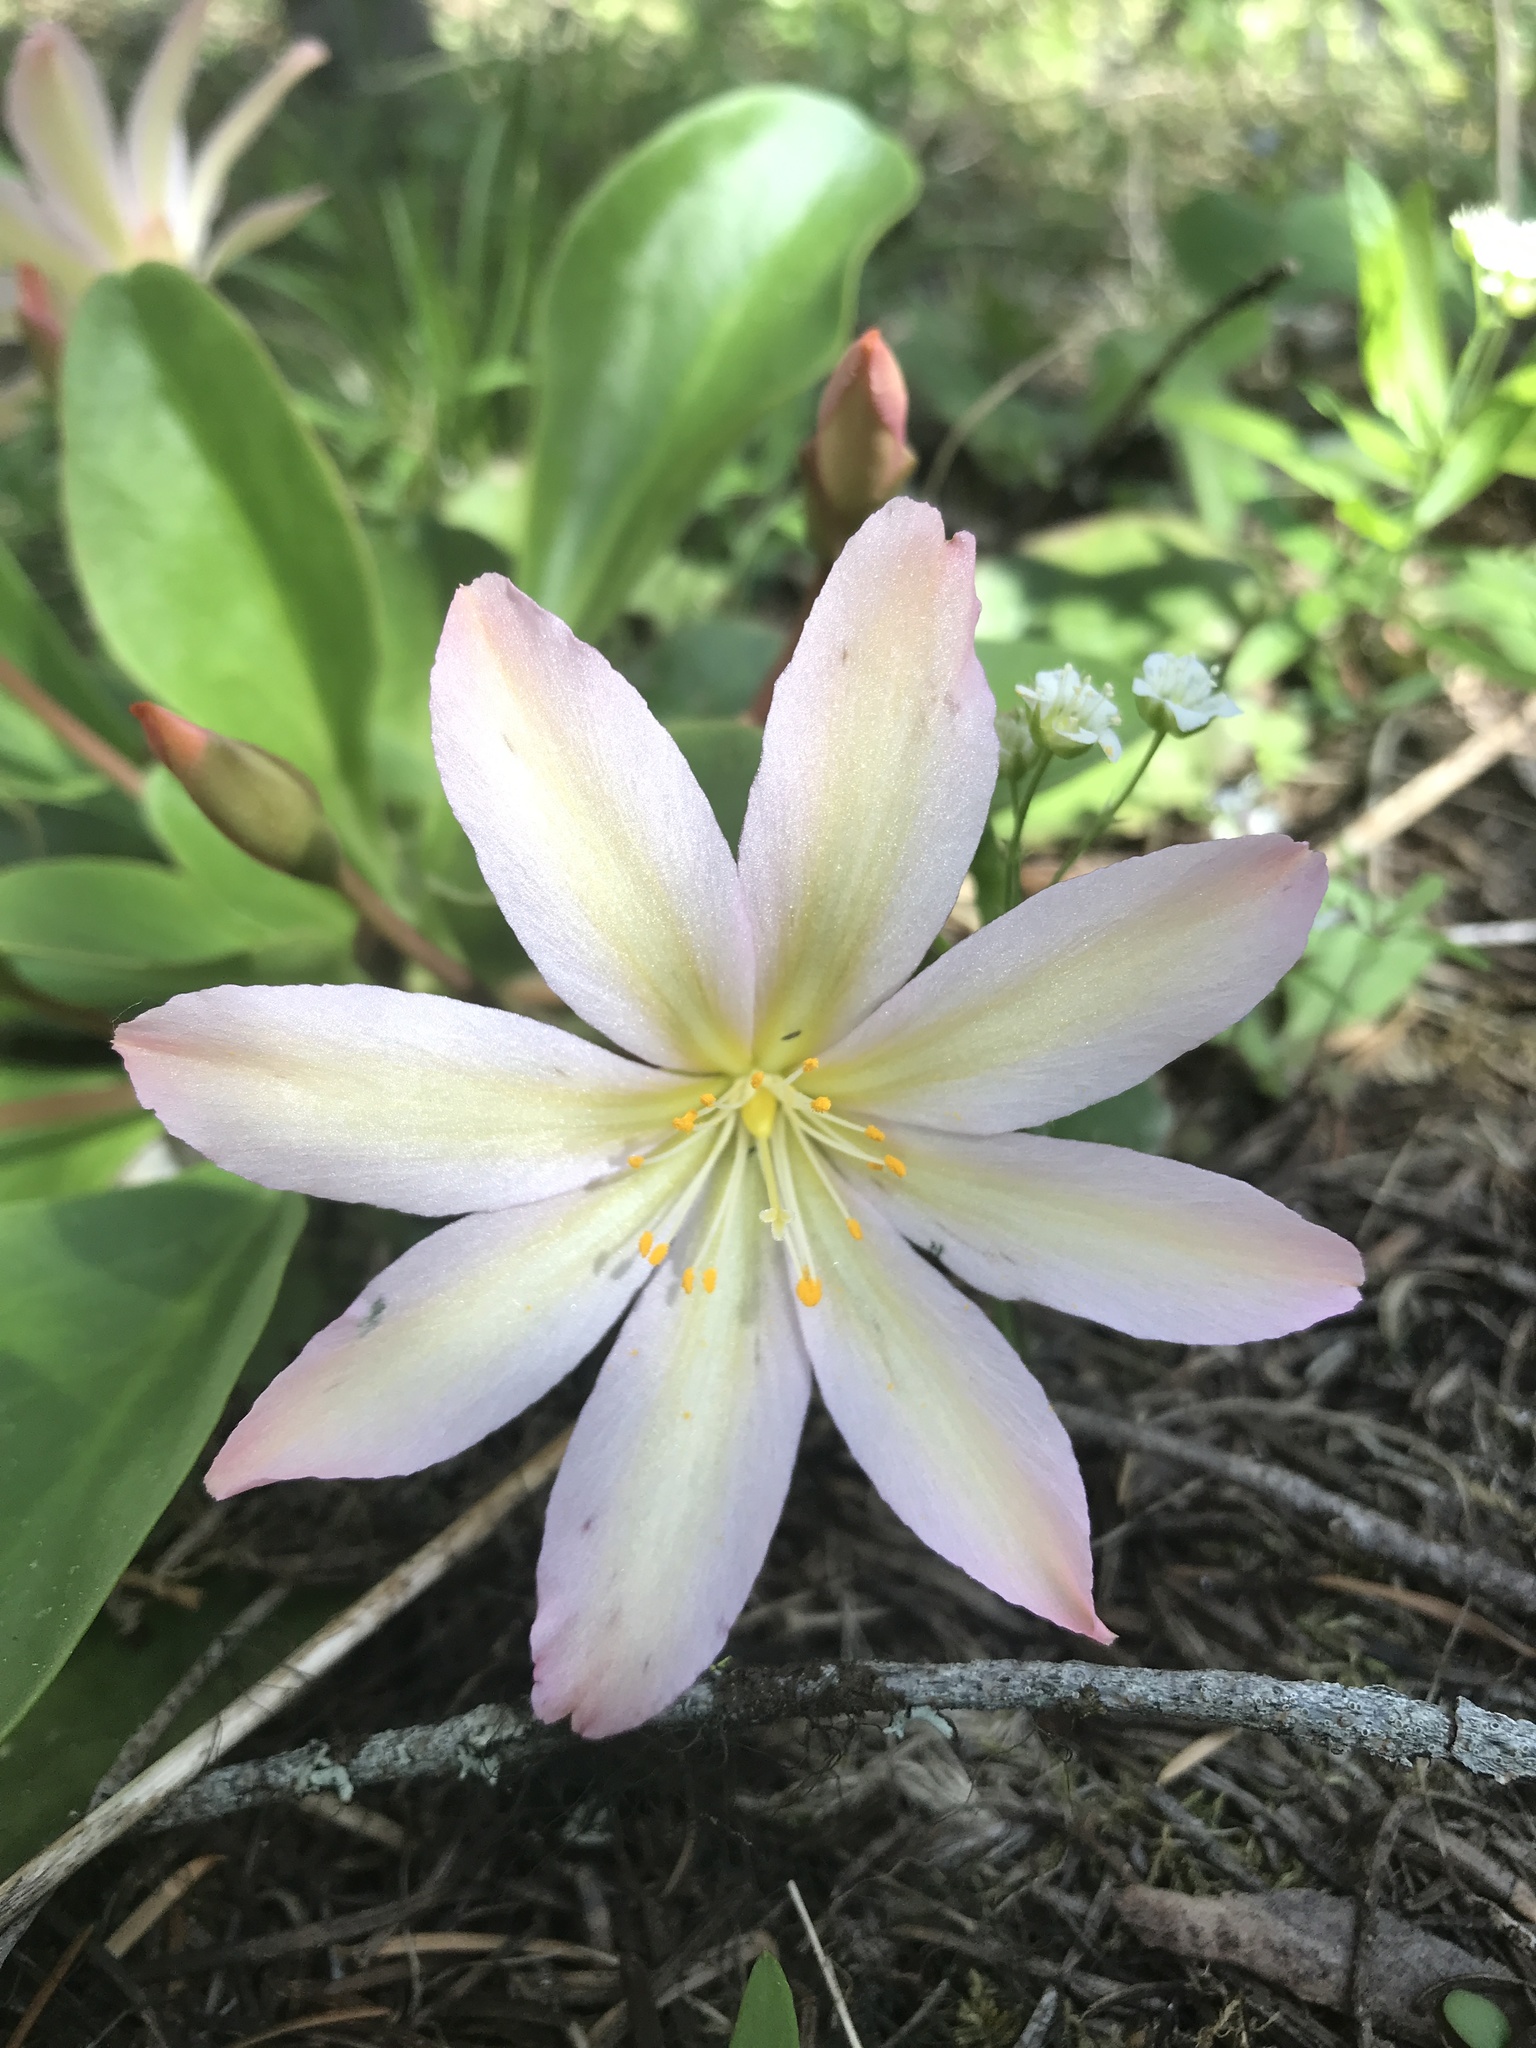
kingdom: Plantae
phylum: Tracheophyta
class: Magnoliopsida
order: Caryophyllales
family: Montiaceae
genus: Lewisiopsis
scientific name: Lewisiopsis tweedyi
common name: Tweedy's pussypaws
